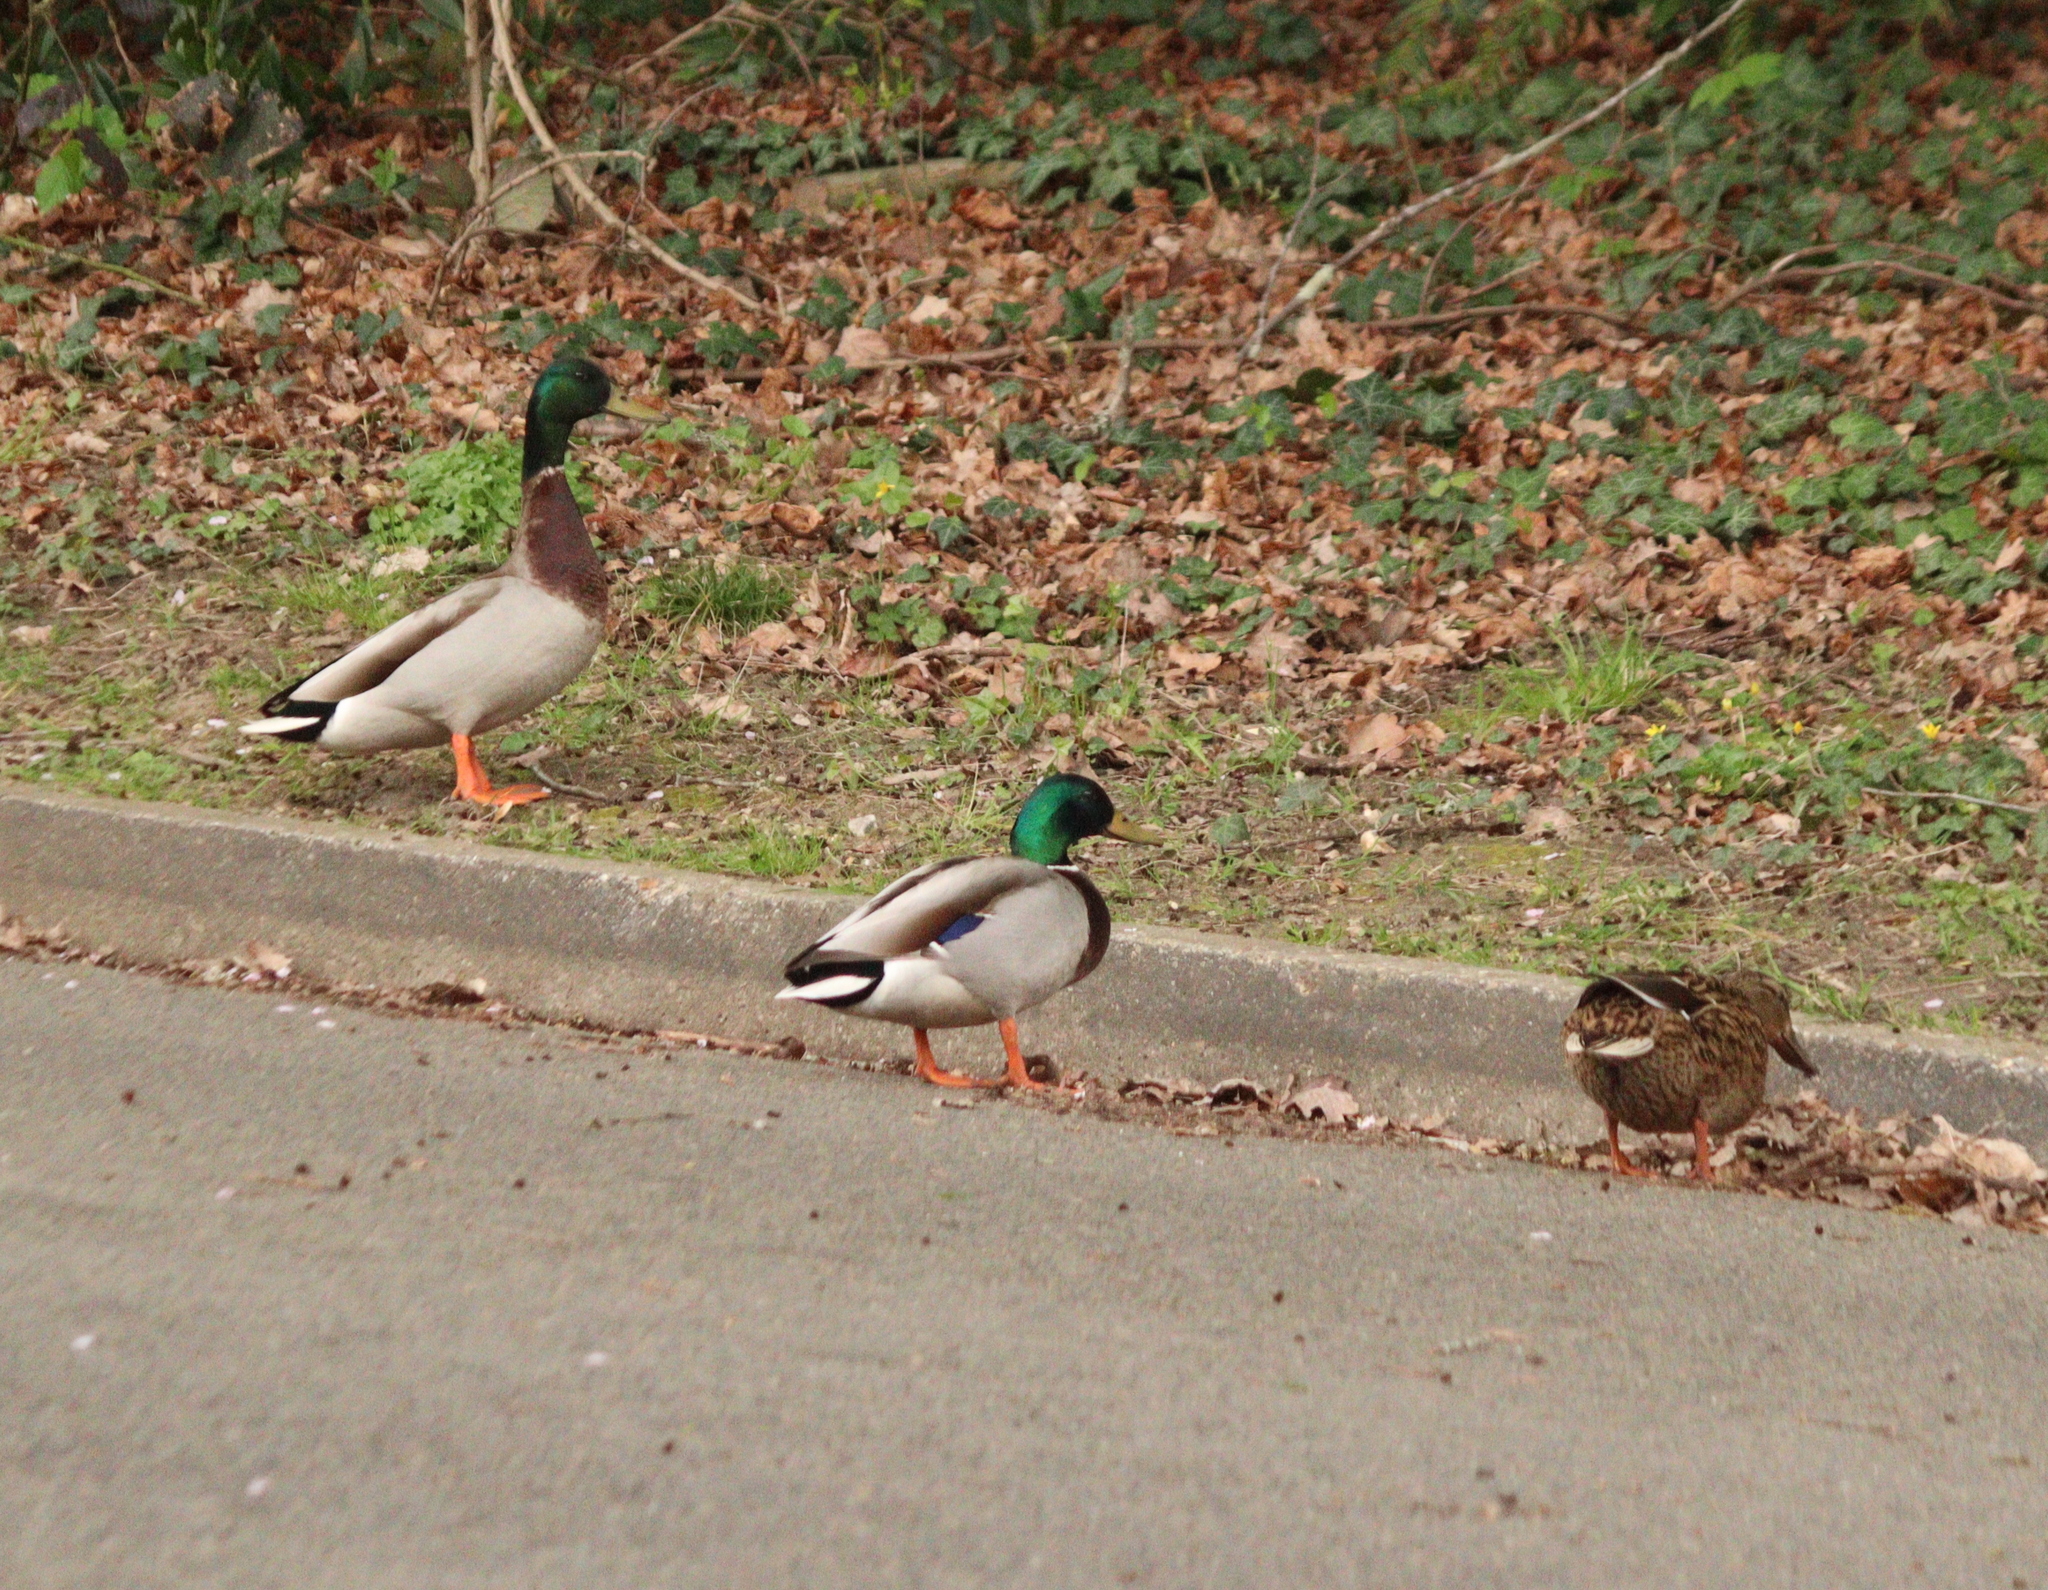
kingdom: Animalia
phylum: Chordata
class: Aves
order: Anseriformes
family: Anatidae
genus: Anas
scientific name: Anas platyrhynchos
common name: Mallard
